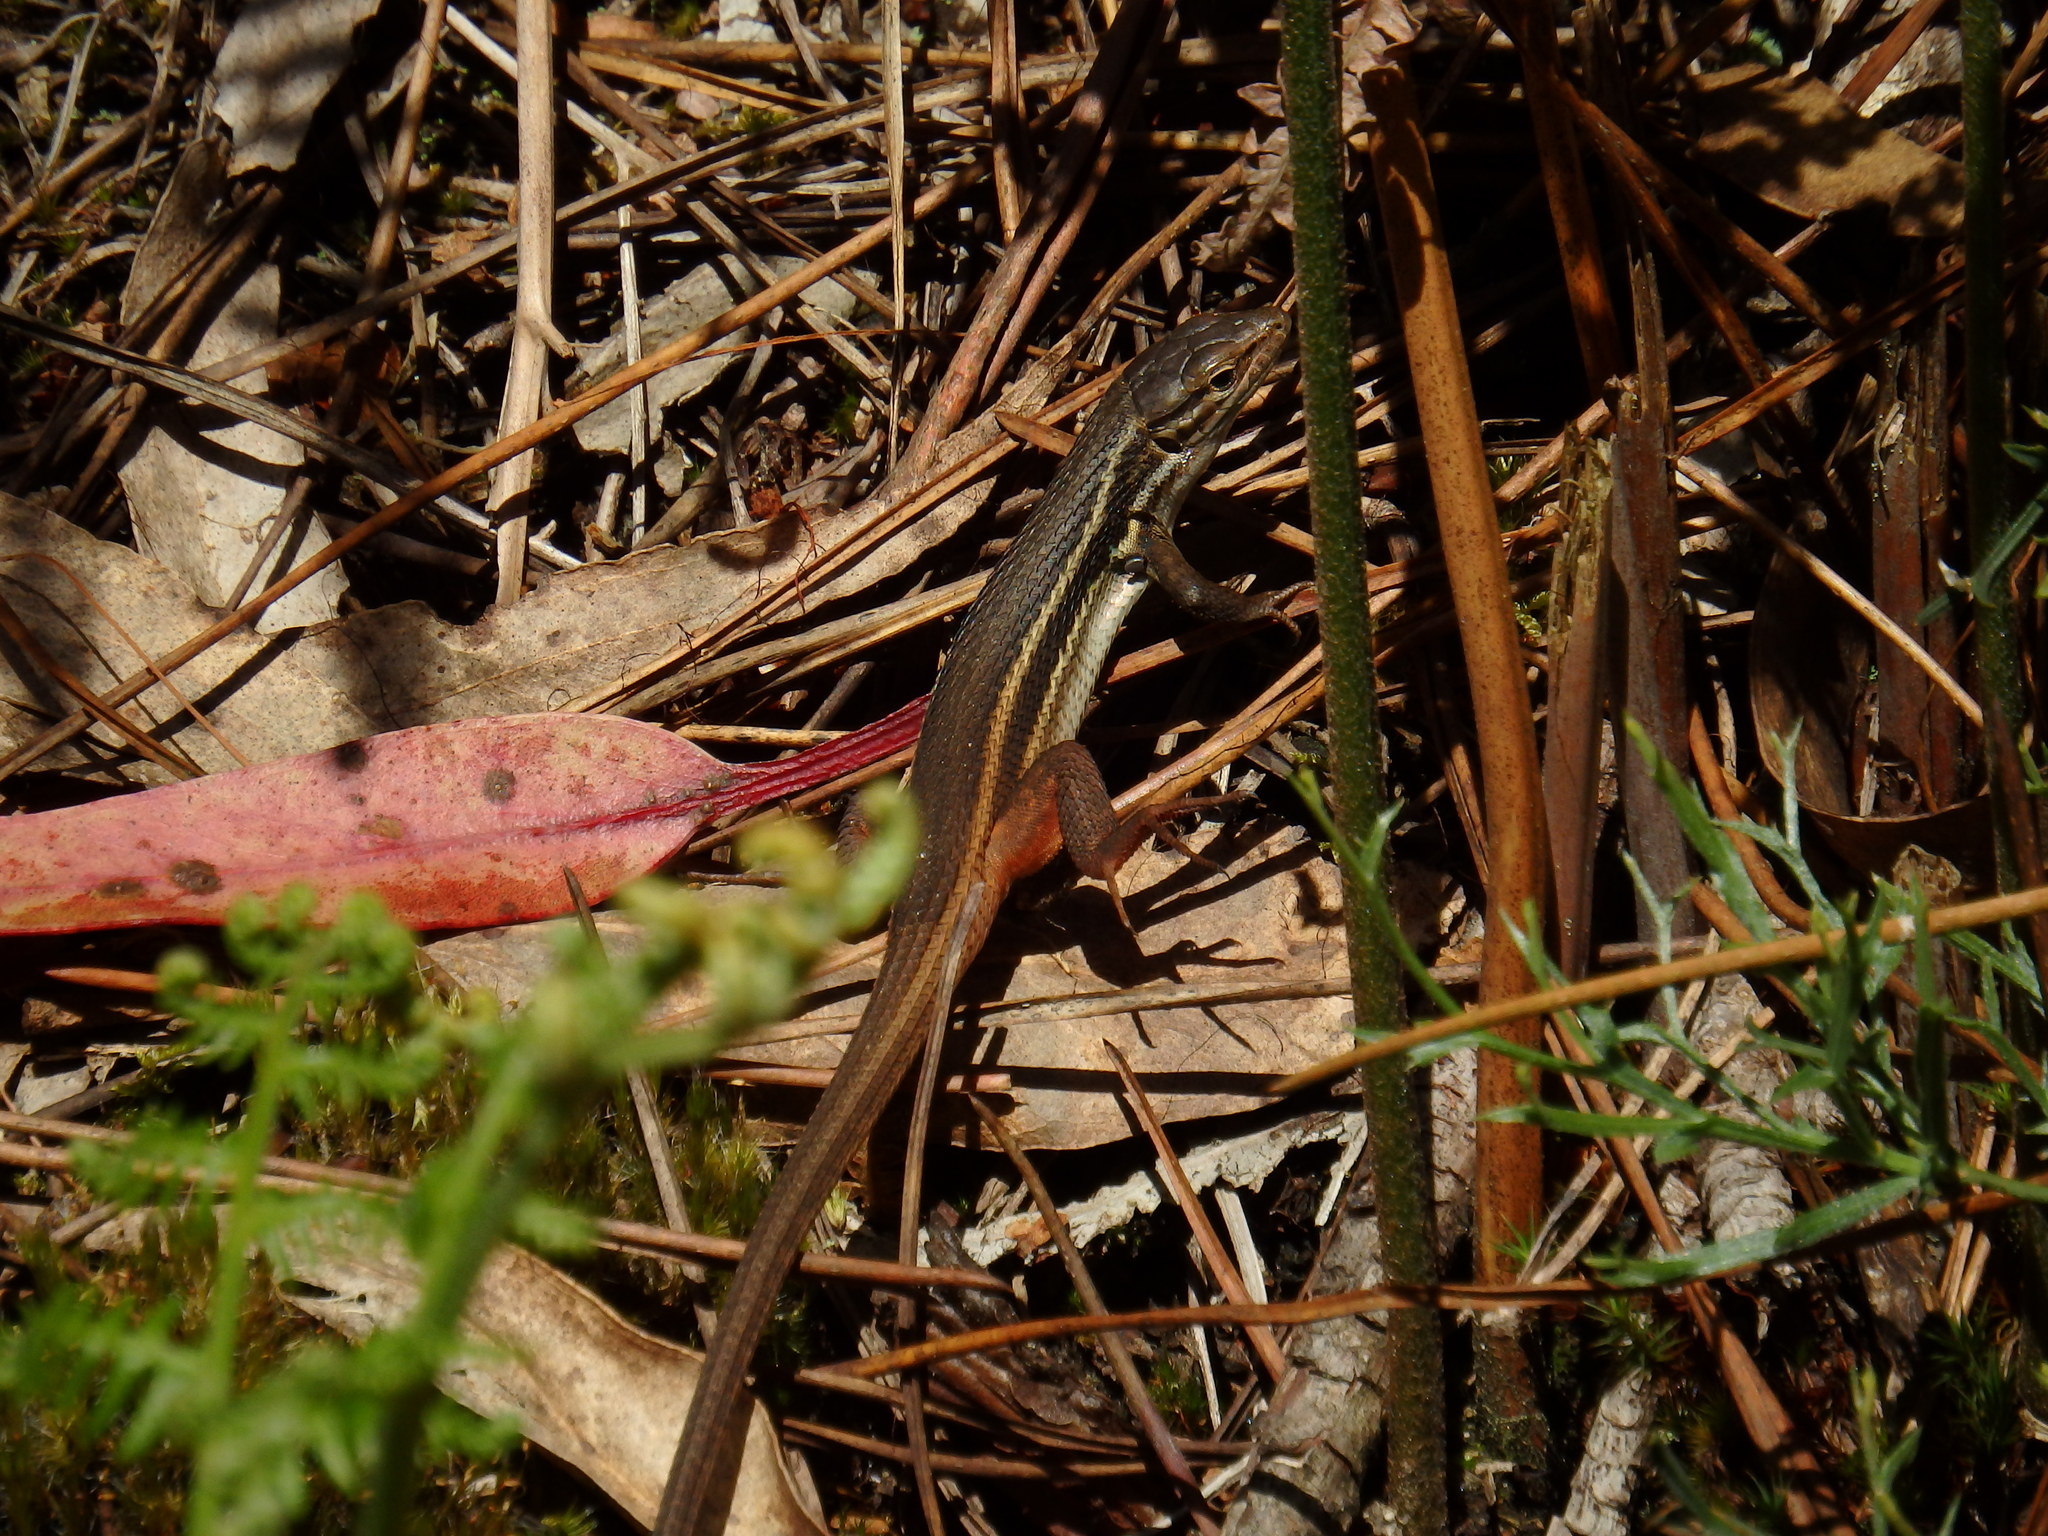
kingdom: Animalia
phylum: Chordata
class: Squamata
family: Lacertidae
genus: Psammodromus
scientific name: Psammodromus algirus
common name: Algerian psammodromus
